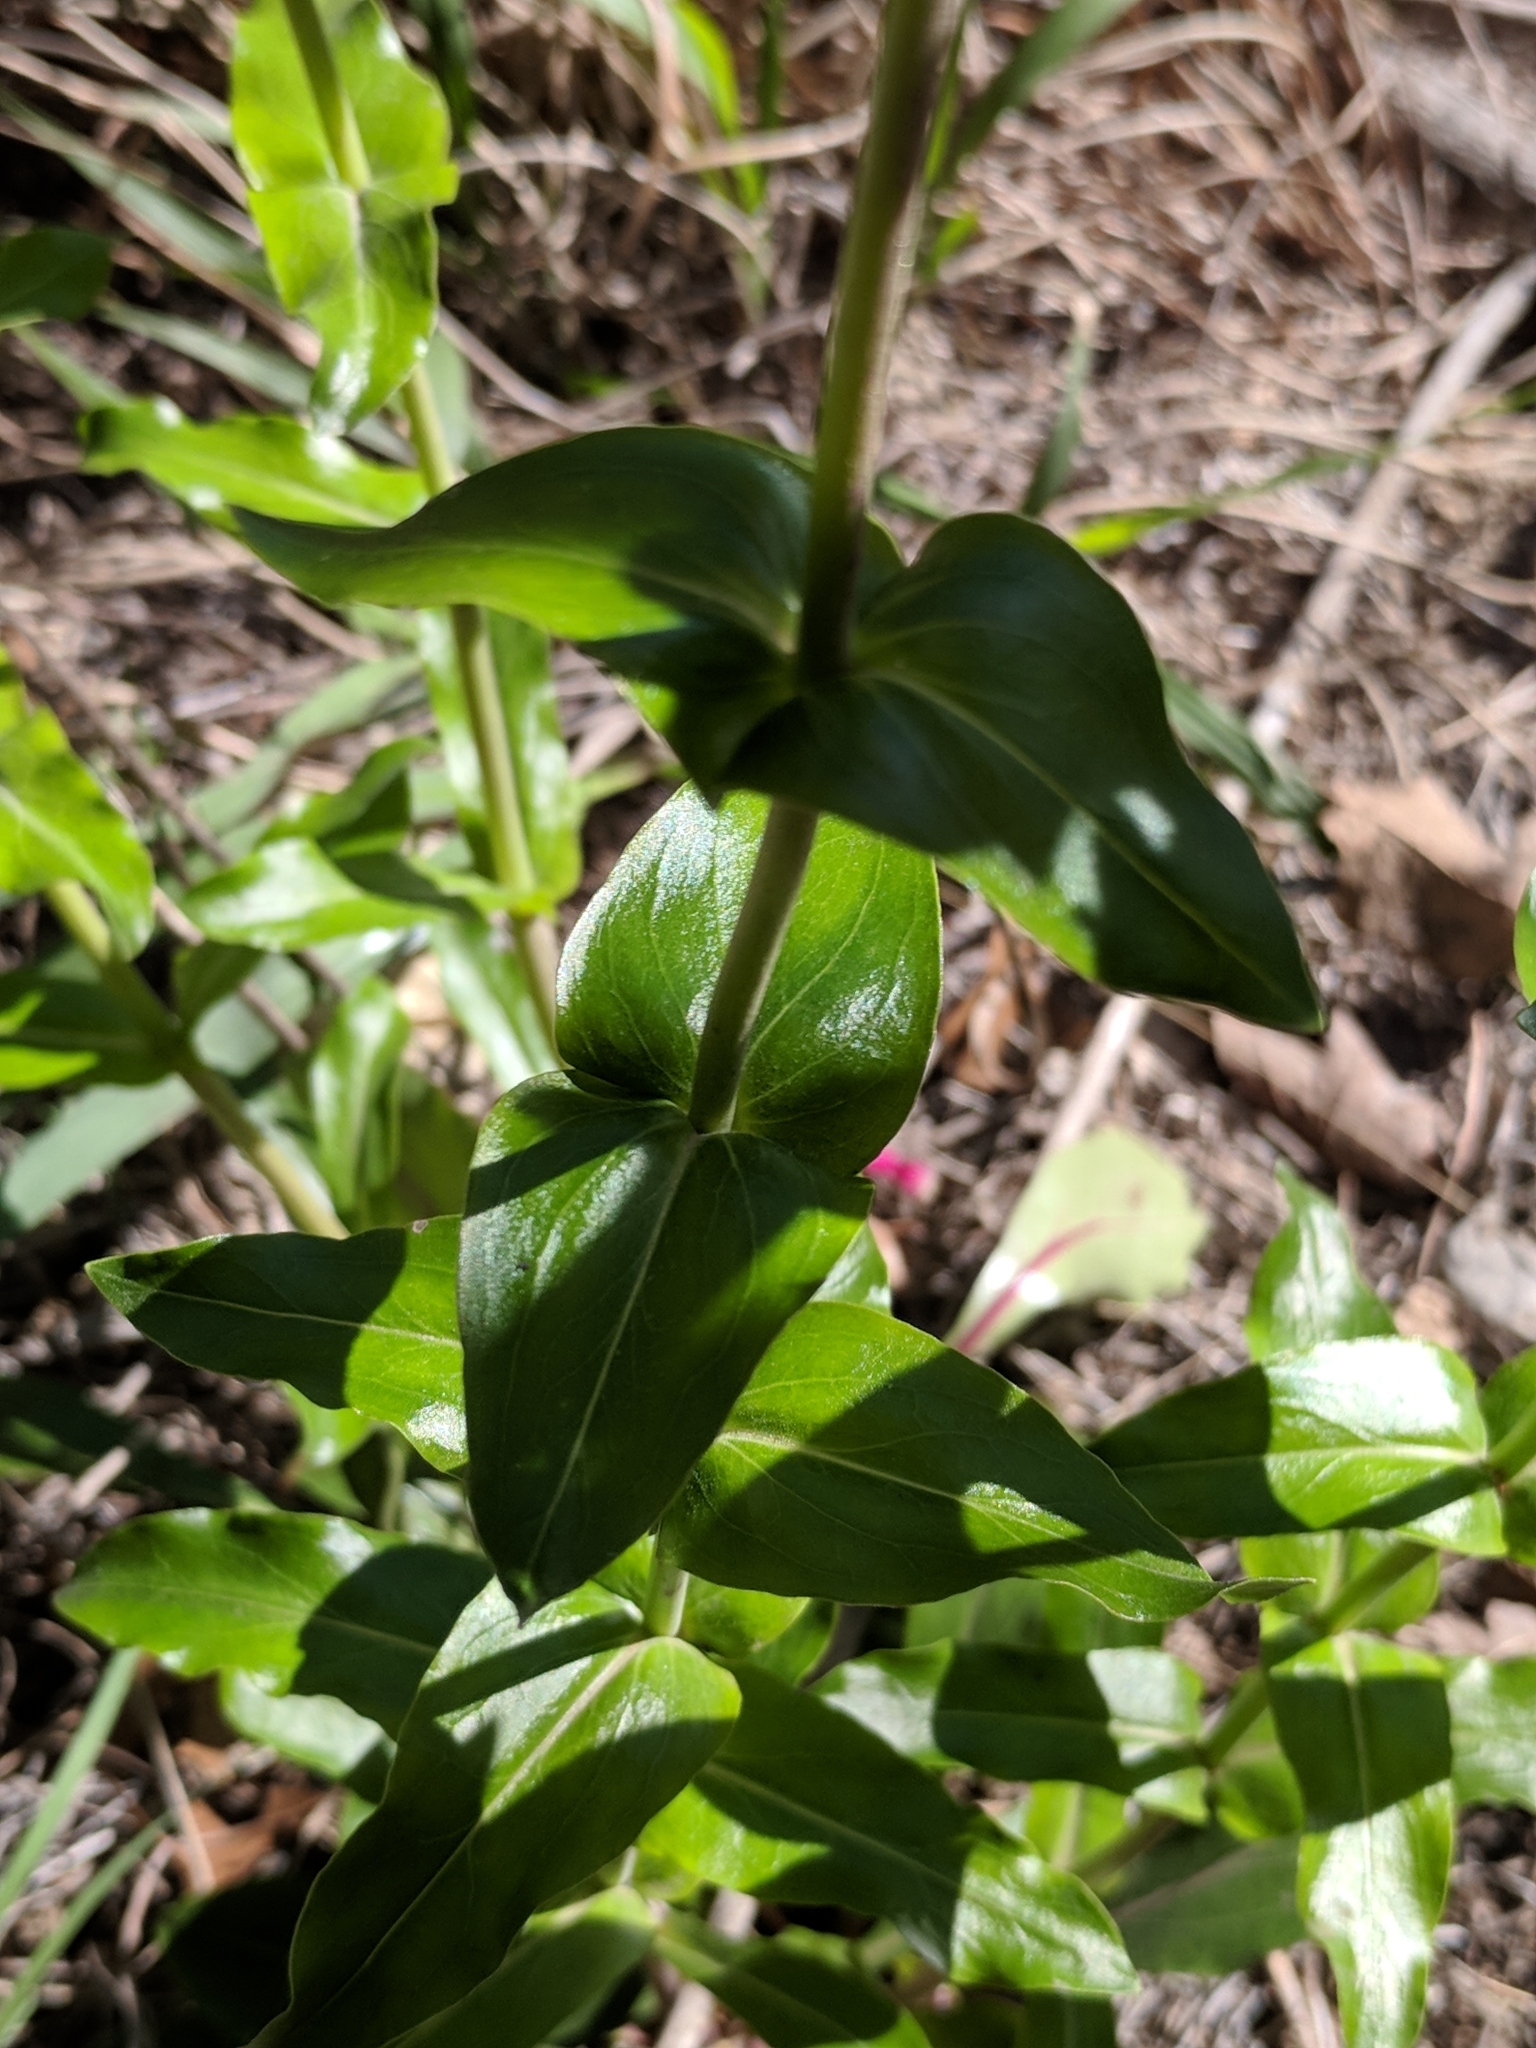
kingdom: Plantae
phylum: Tracheophyta
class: Magnoliopsida
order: Lamiales
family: Plantaginaceae
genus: Penstemon
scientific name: Penstemon triflorus
